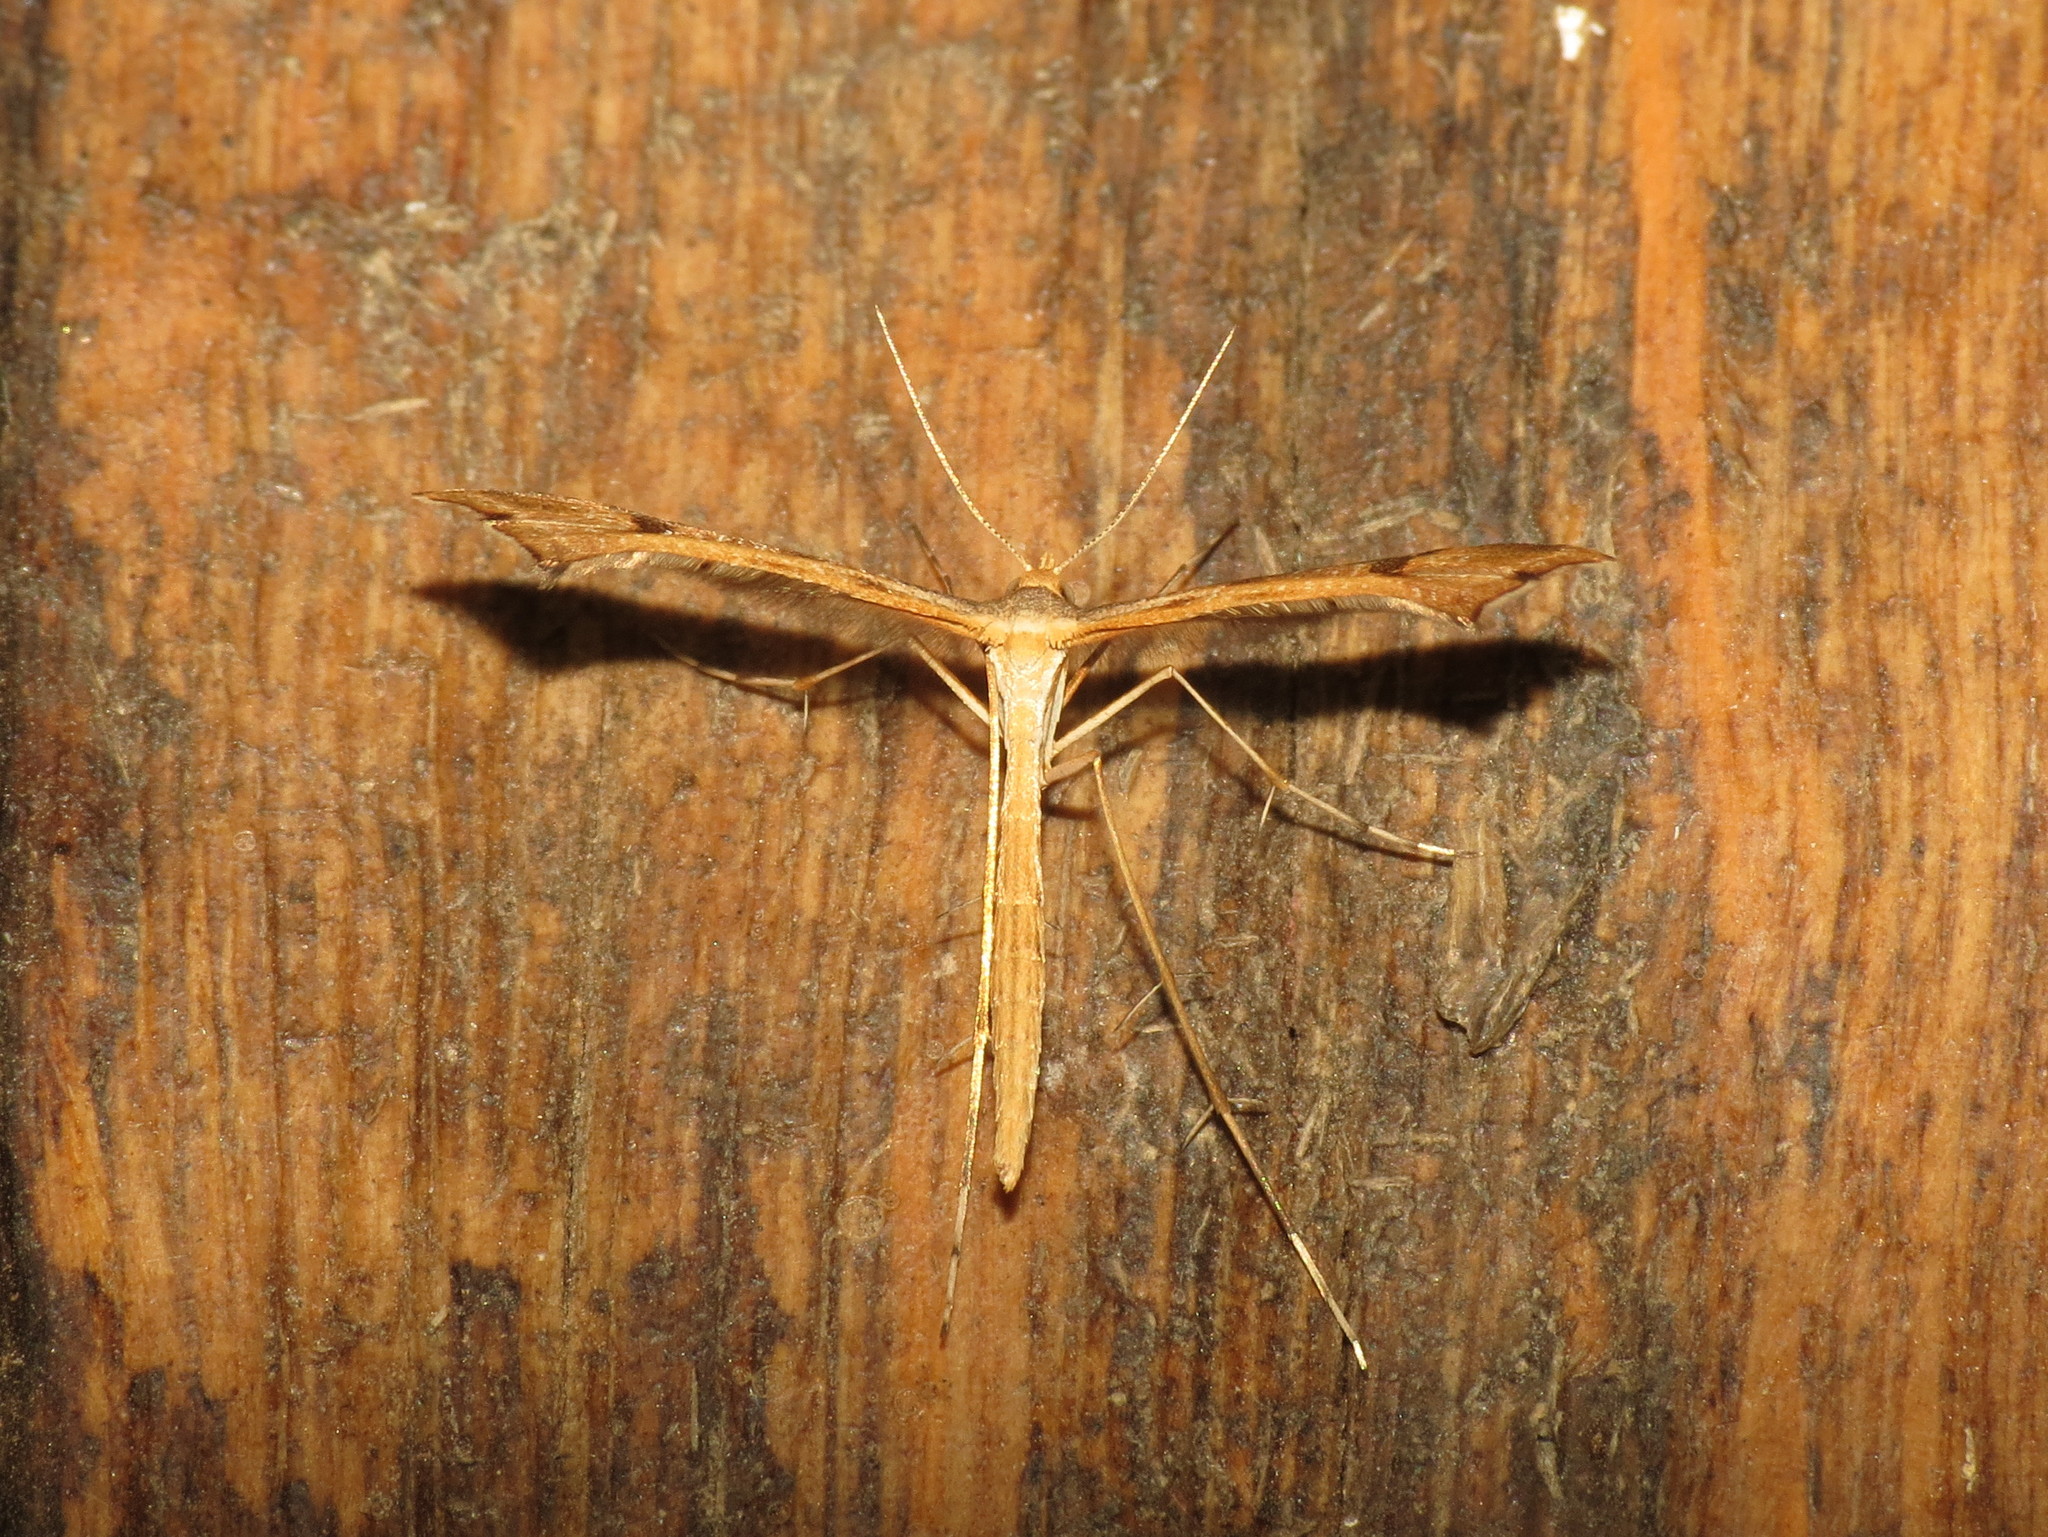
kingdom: Animalia
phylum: Arthropoda
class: Insecta
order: Lepidoptera
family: Pterophoridae
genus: Sinpunctiptilia
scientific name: Sinpunctiptilia emissalis
